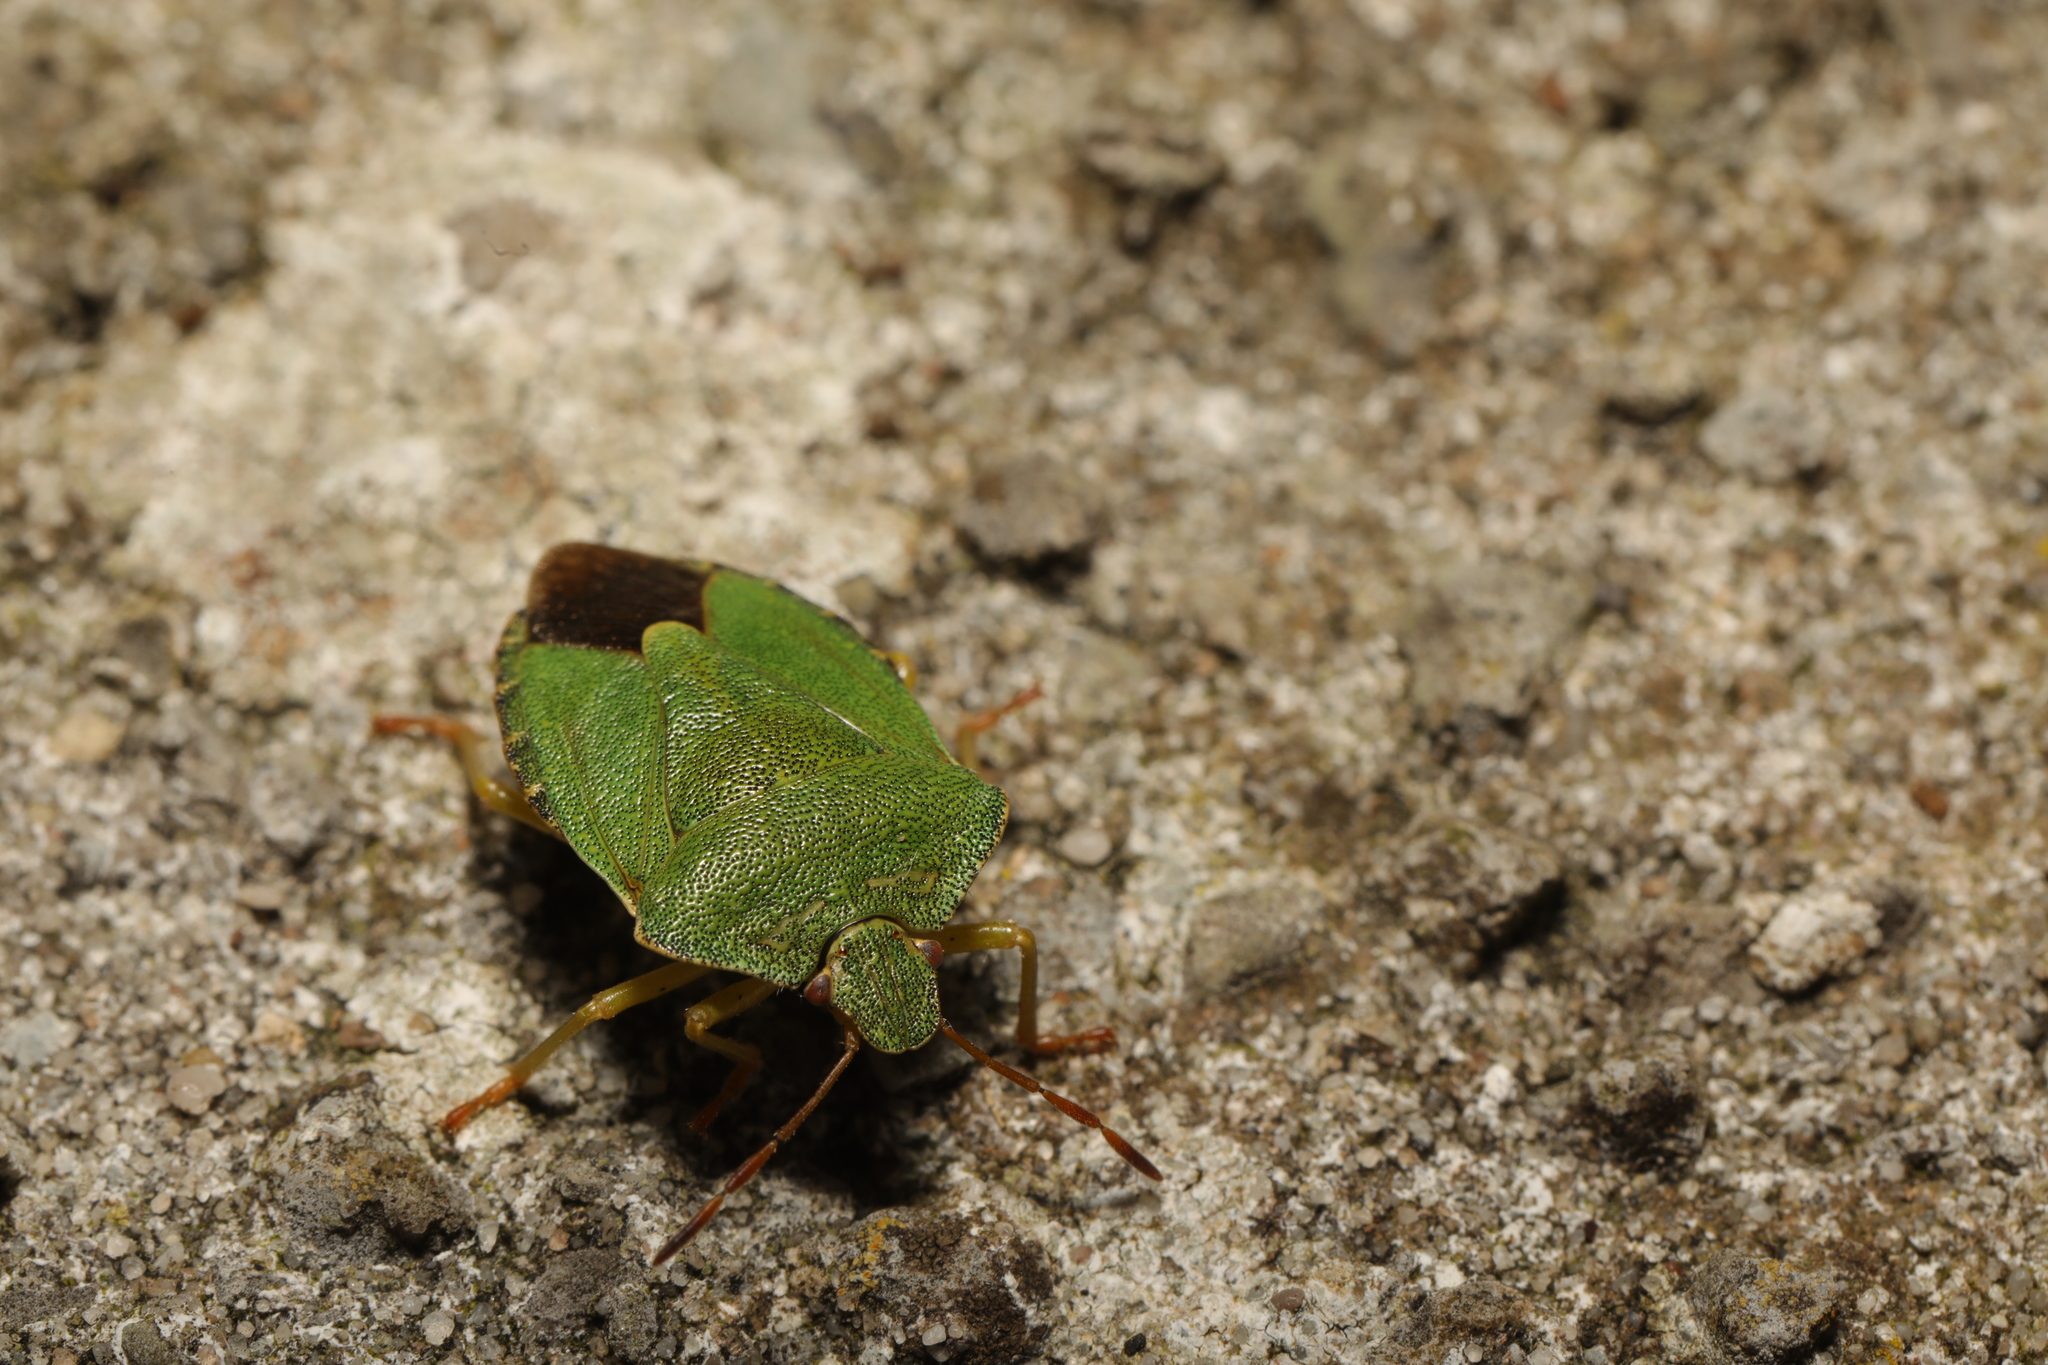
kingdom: Animalia
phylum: Arthropoda
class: Insecta
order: Hemiptera
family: Pentatomidae
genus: Palomena
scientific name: Palomena prasina
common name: Green shieldbug
